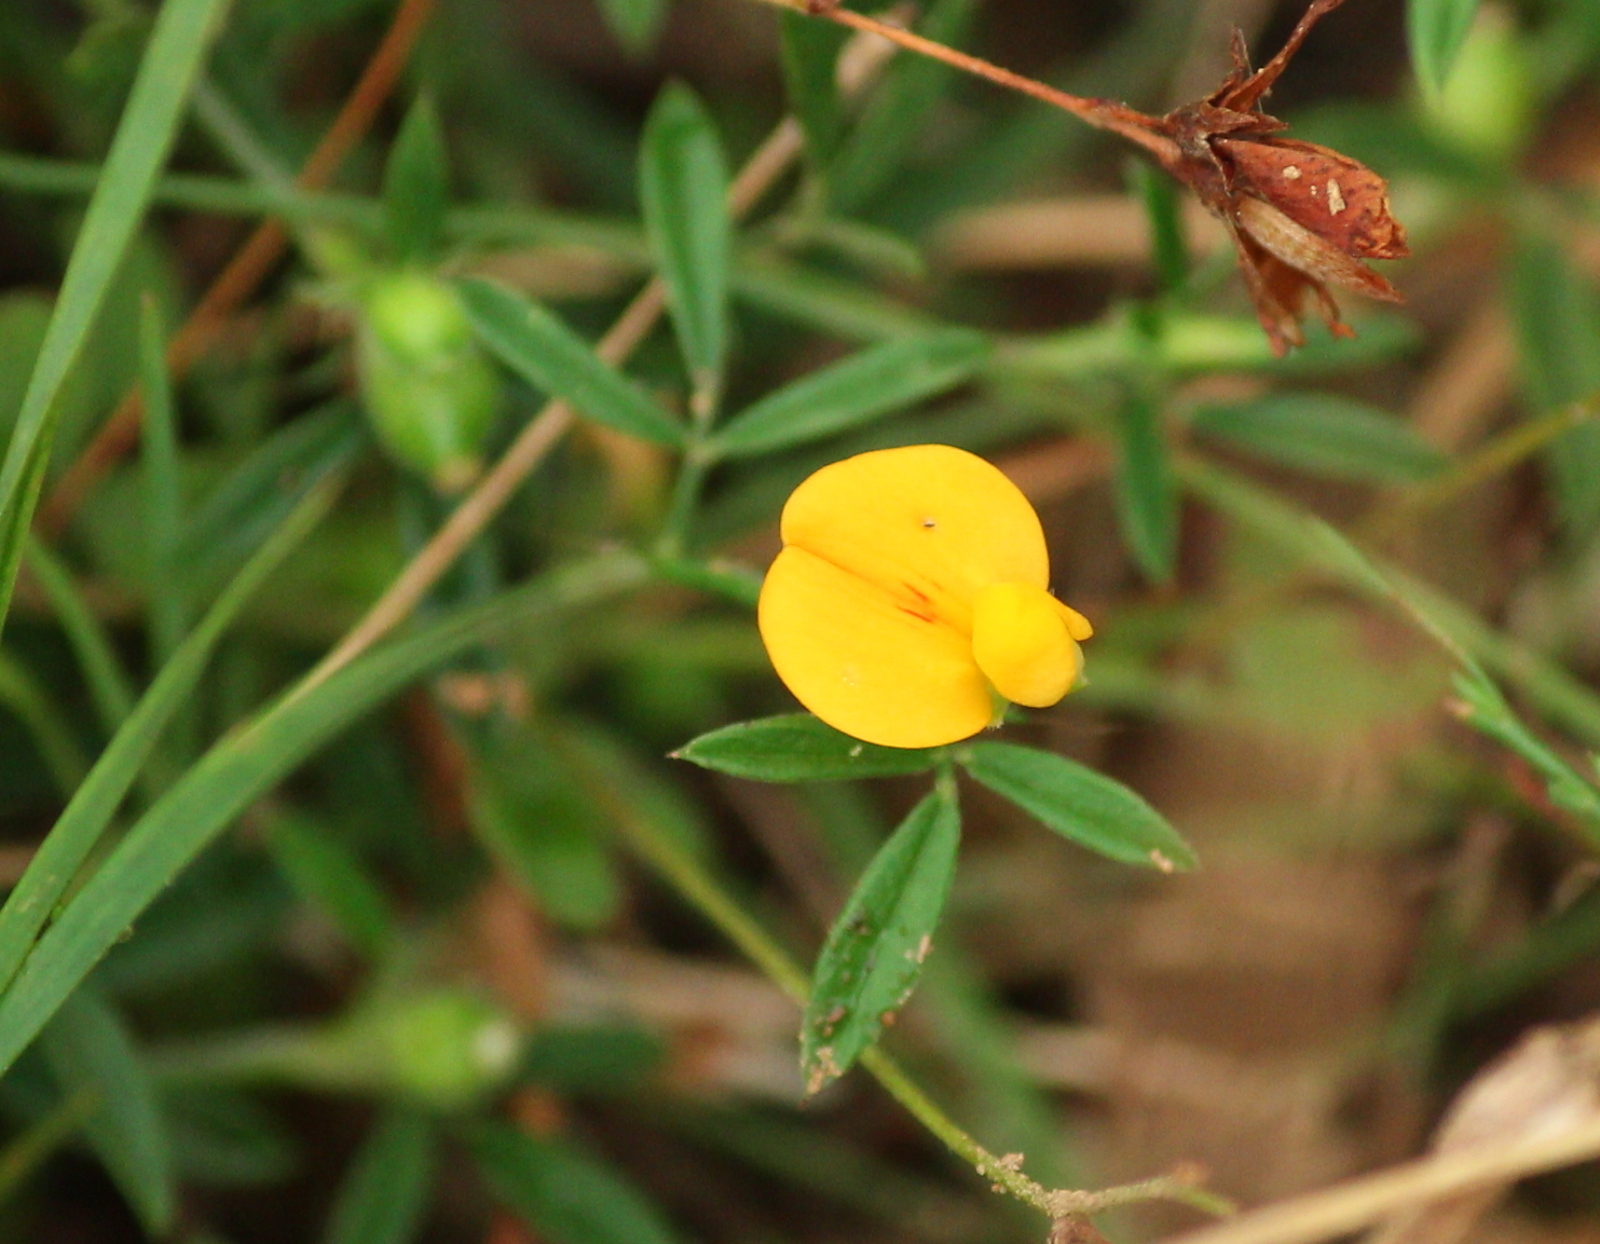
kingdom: Plantae
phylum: Tracheophyta
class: Magnoliopsida
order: Fabales
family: Fabaceae
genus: Stylosanthes
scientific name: Stylosanthes biflora
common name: Two-flower pencil-flower
